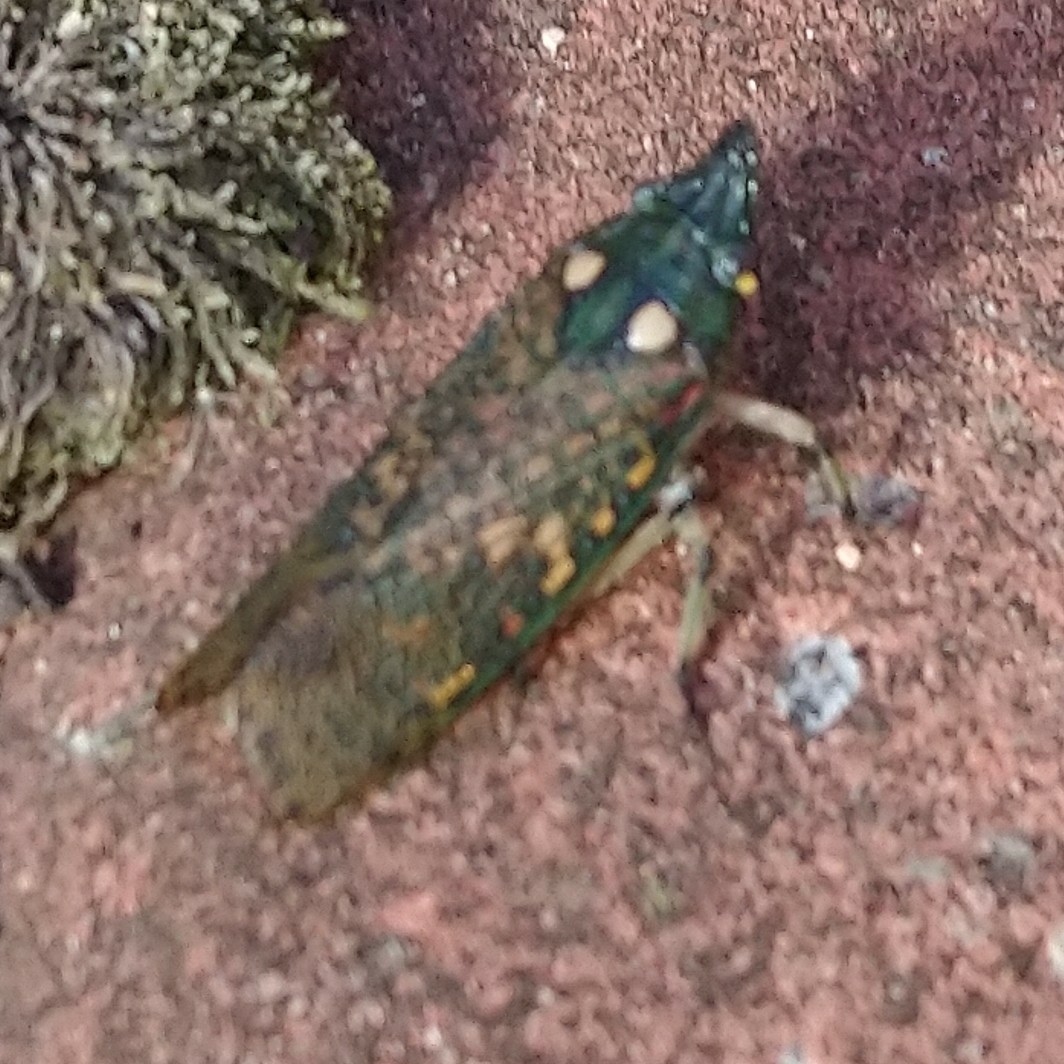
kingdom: Animalia
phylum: Arthropoda
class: Insecta
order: Hemiptera
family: Fulgoridae
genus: Mantosyna
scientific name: Mantosyna haemorrhoidalis
